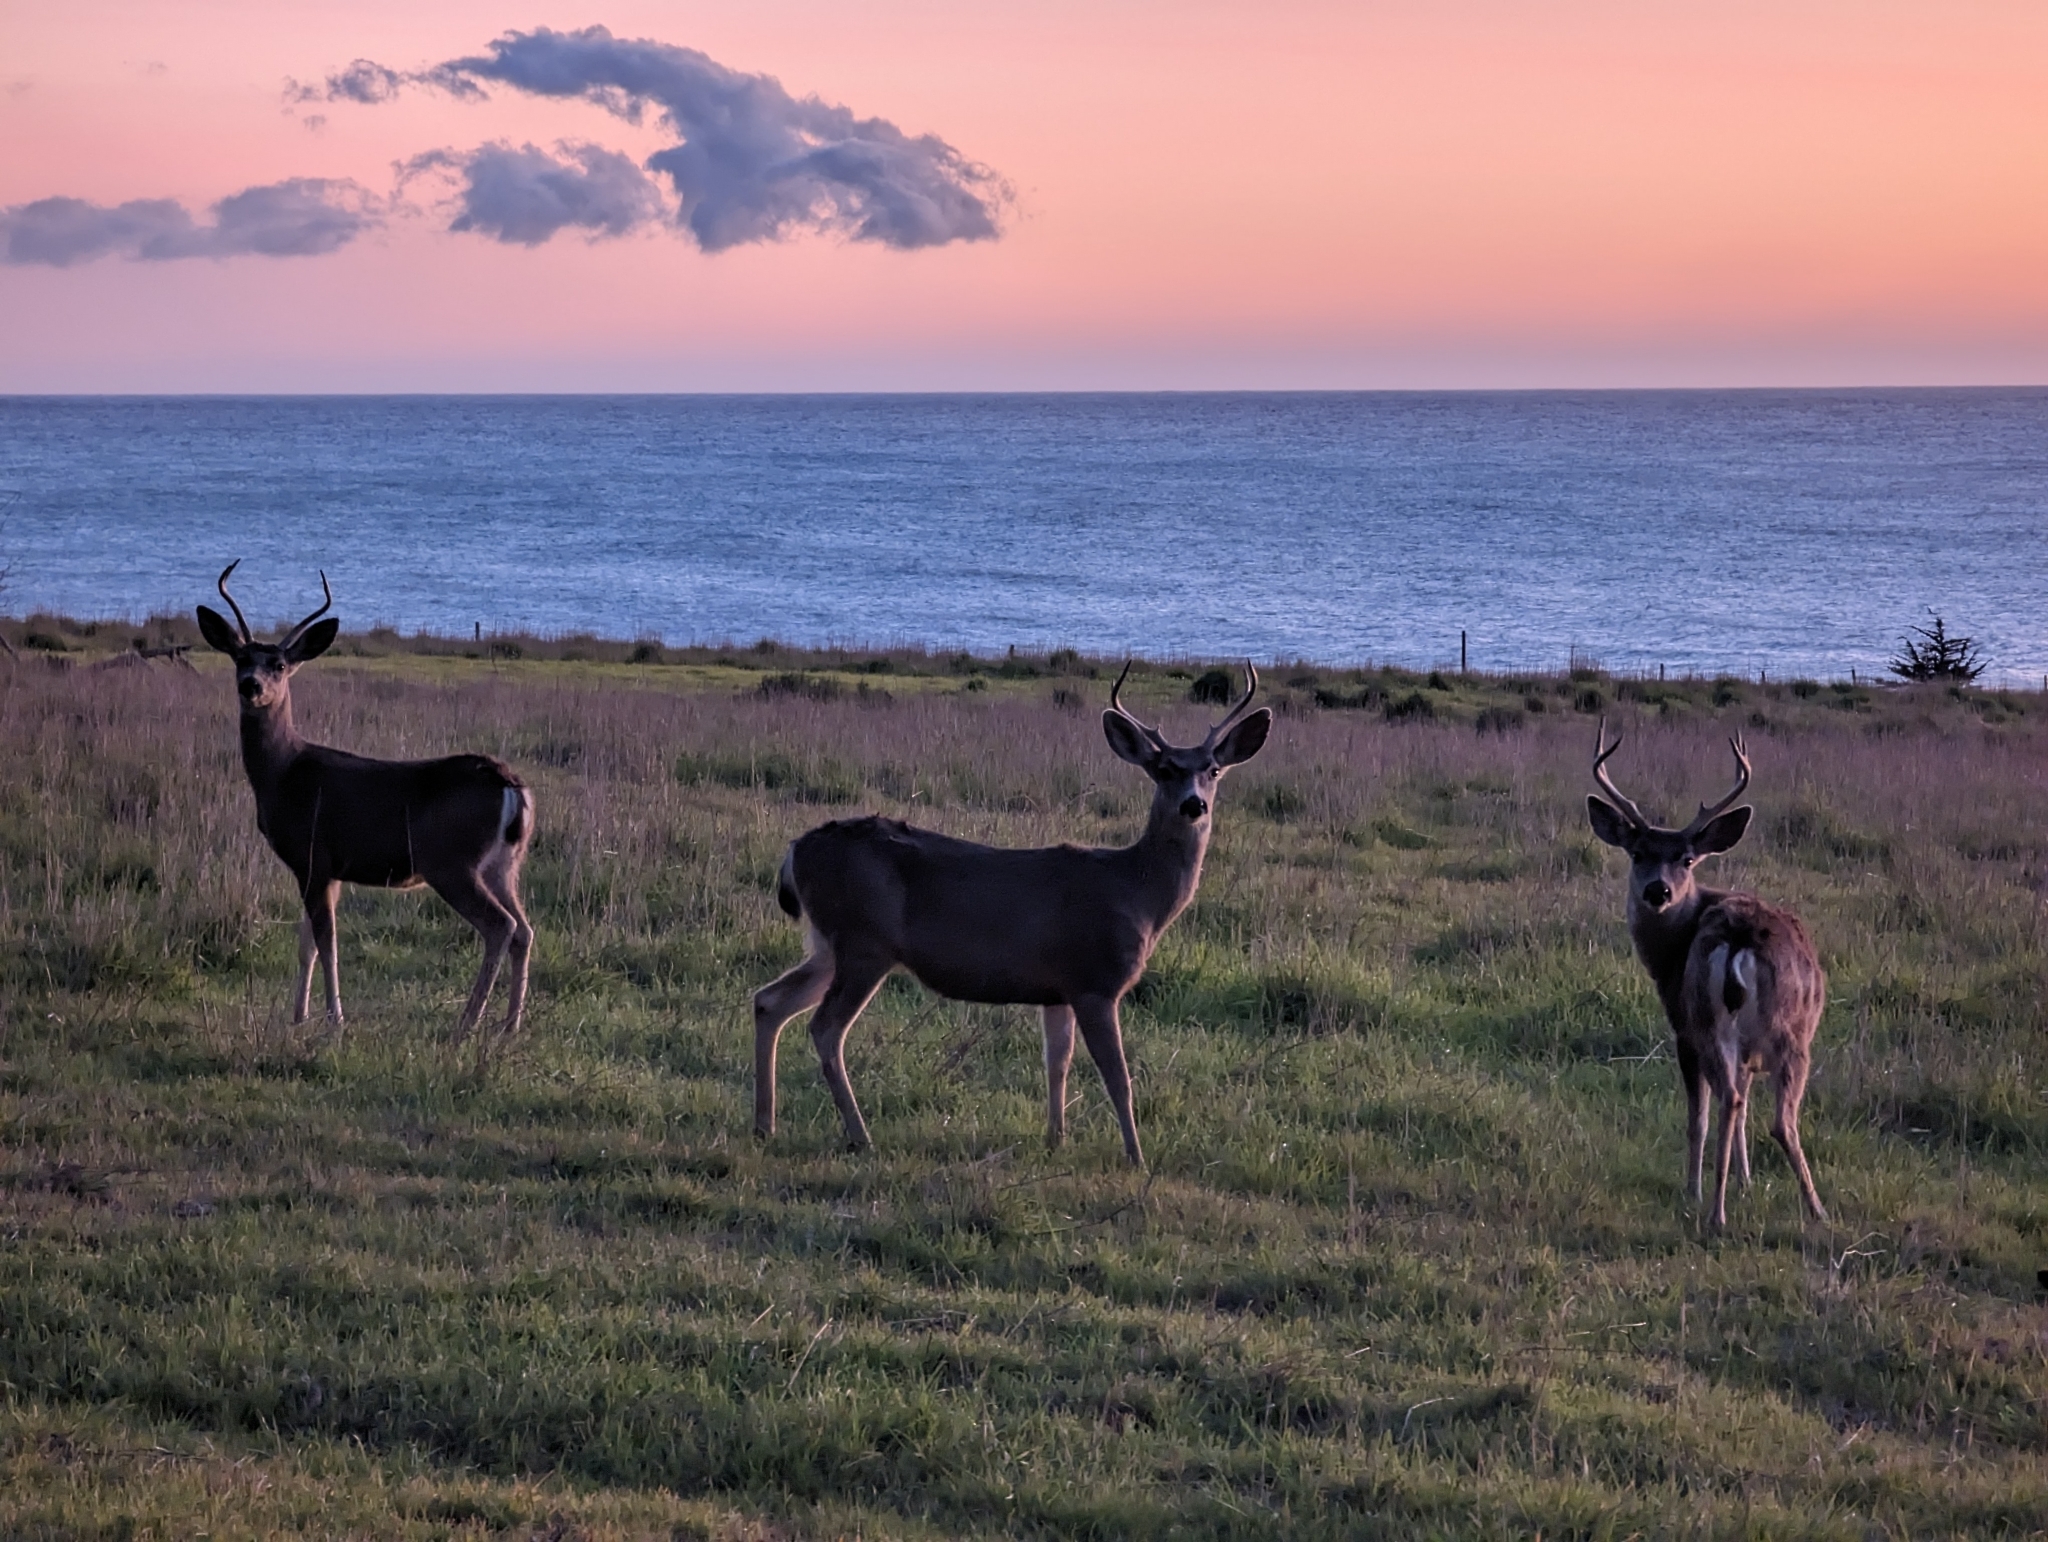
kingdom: Animalia
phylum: Chordata
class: Mammalia
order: Artiodactyla
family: Cervidae
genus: Odocoileus
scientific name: Odocoileus hemionus
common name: Mule deer
